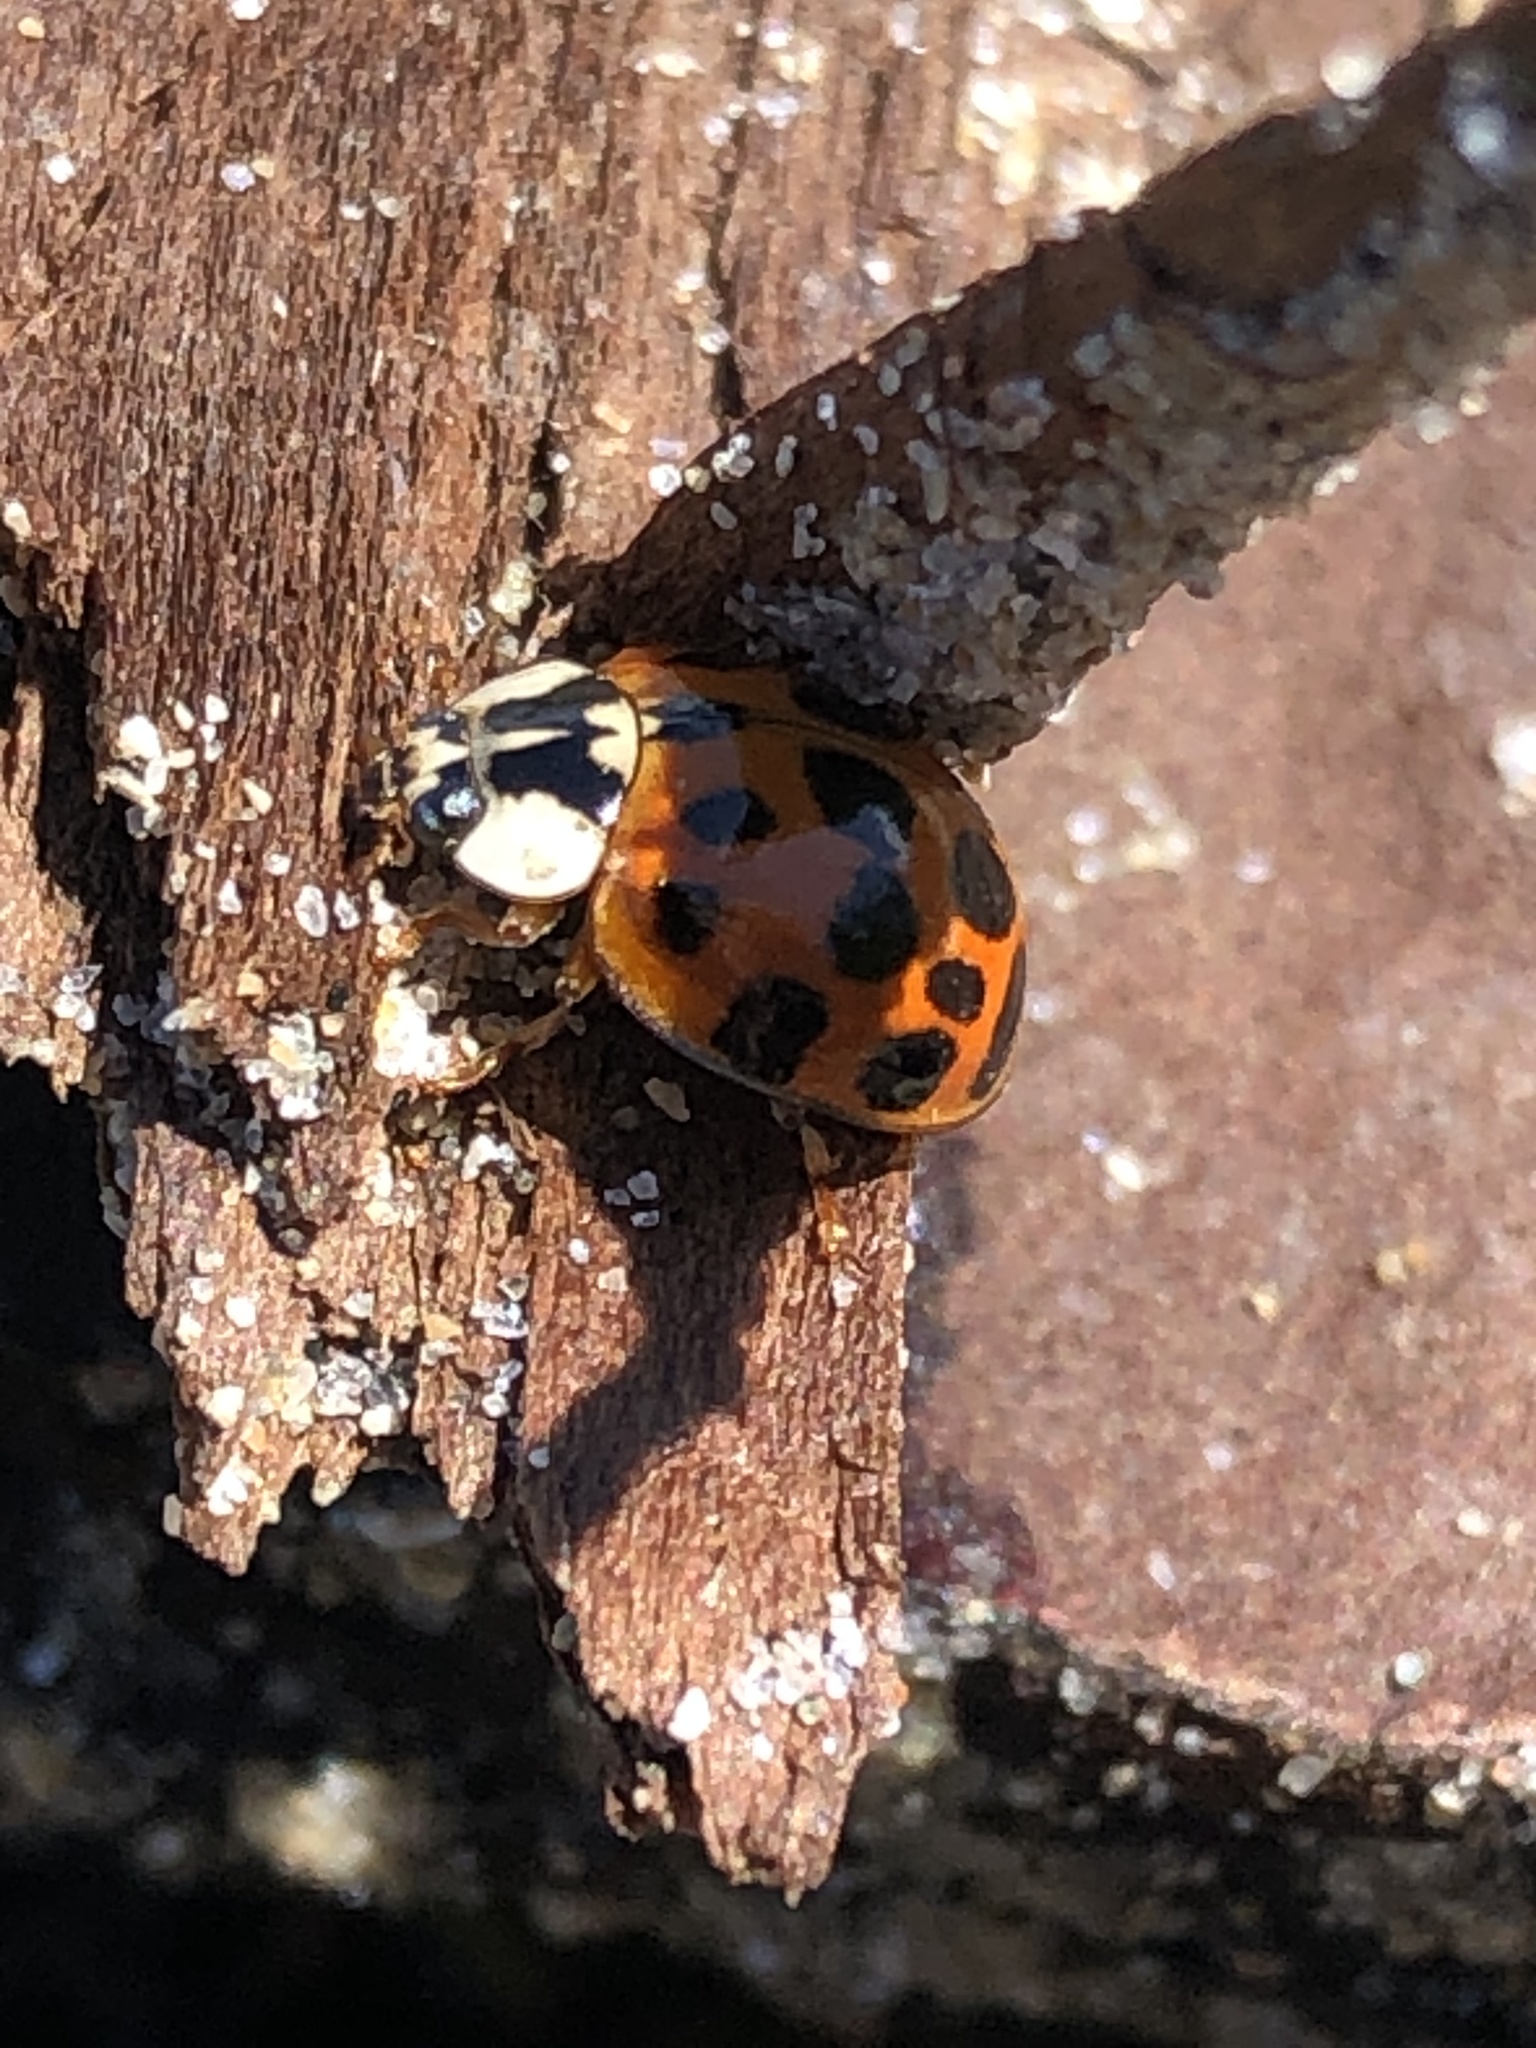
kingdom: Animalia
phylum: Arthropoda
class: Insecta
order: Coleoptera
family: Coccinellidae
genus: Harmonia
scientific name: Harmonia axyridis
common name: Harlequin ladybird
